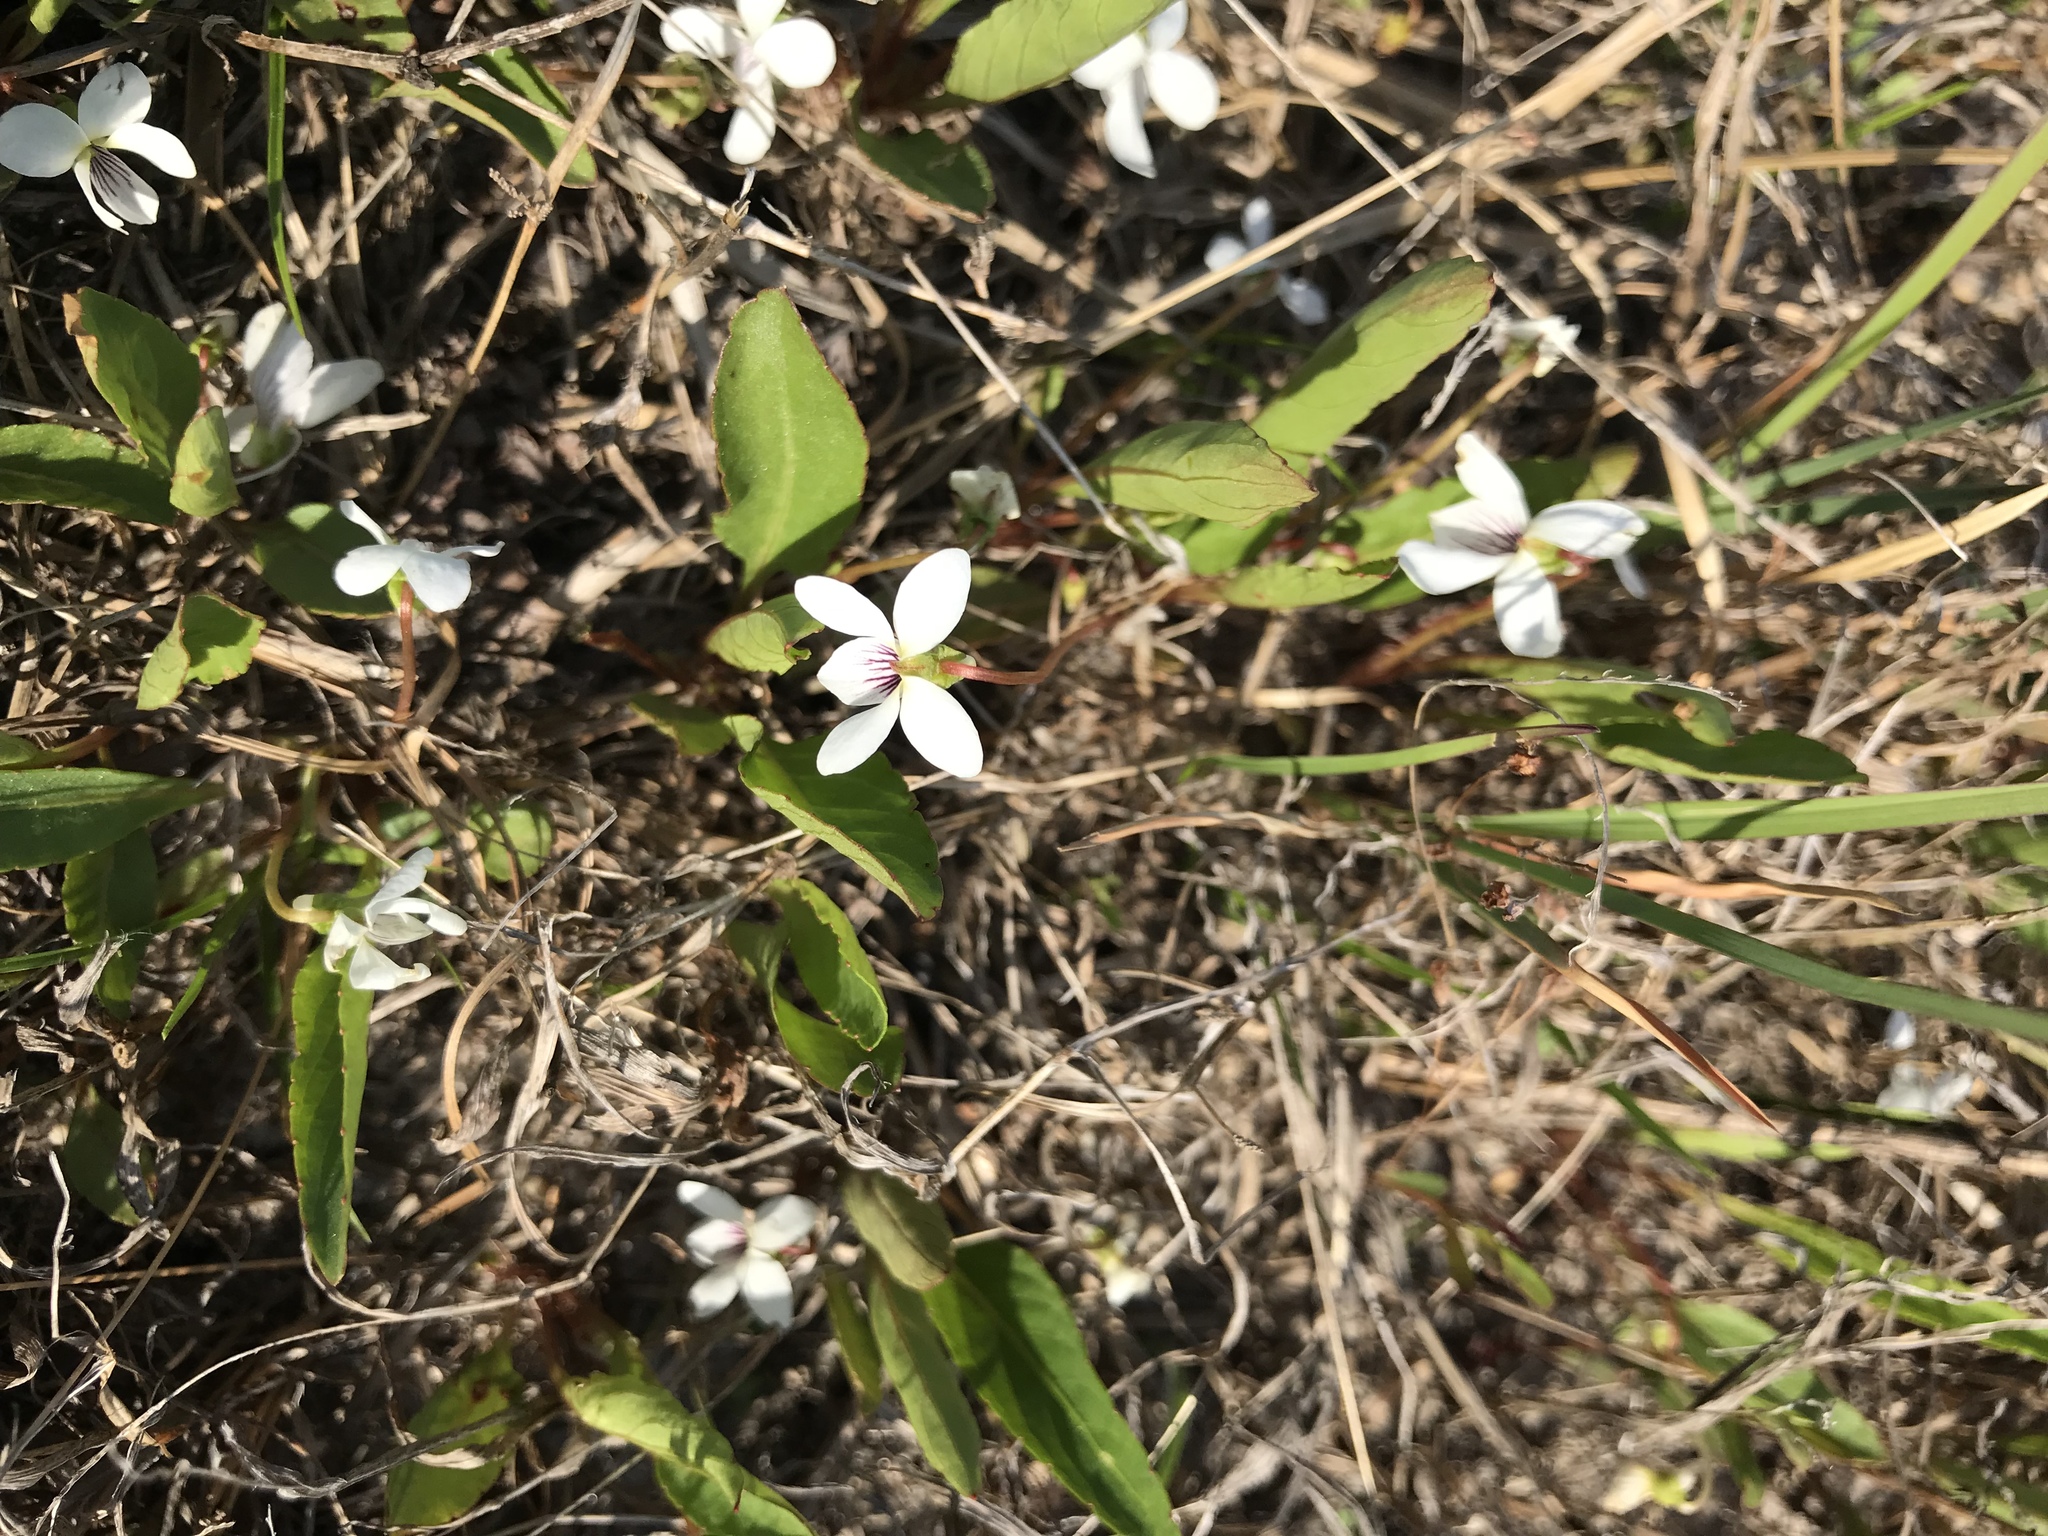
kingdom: Plantae
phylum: Tracheophyta
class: Magnoliopsida
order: Malpighiales
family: Violaceae
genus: Viola
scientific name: Viola lanceolata
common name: Bog white violet
